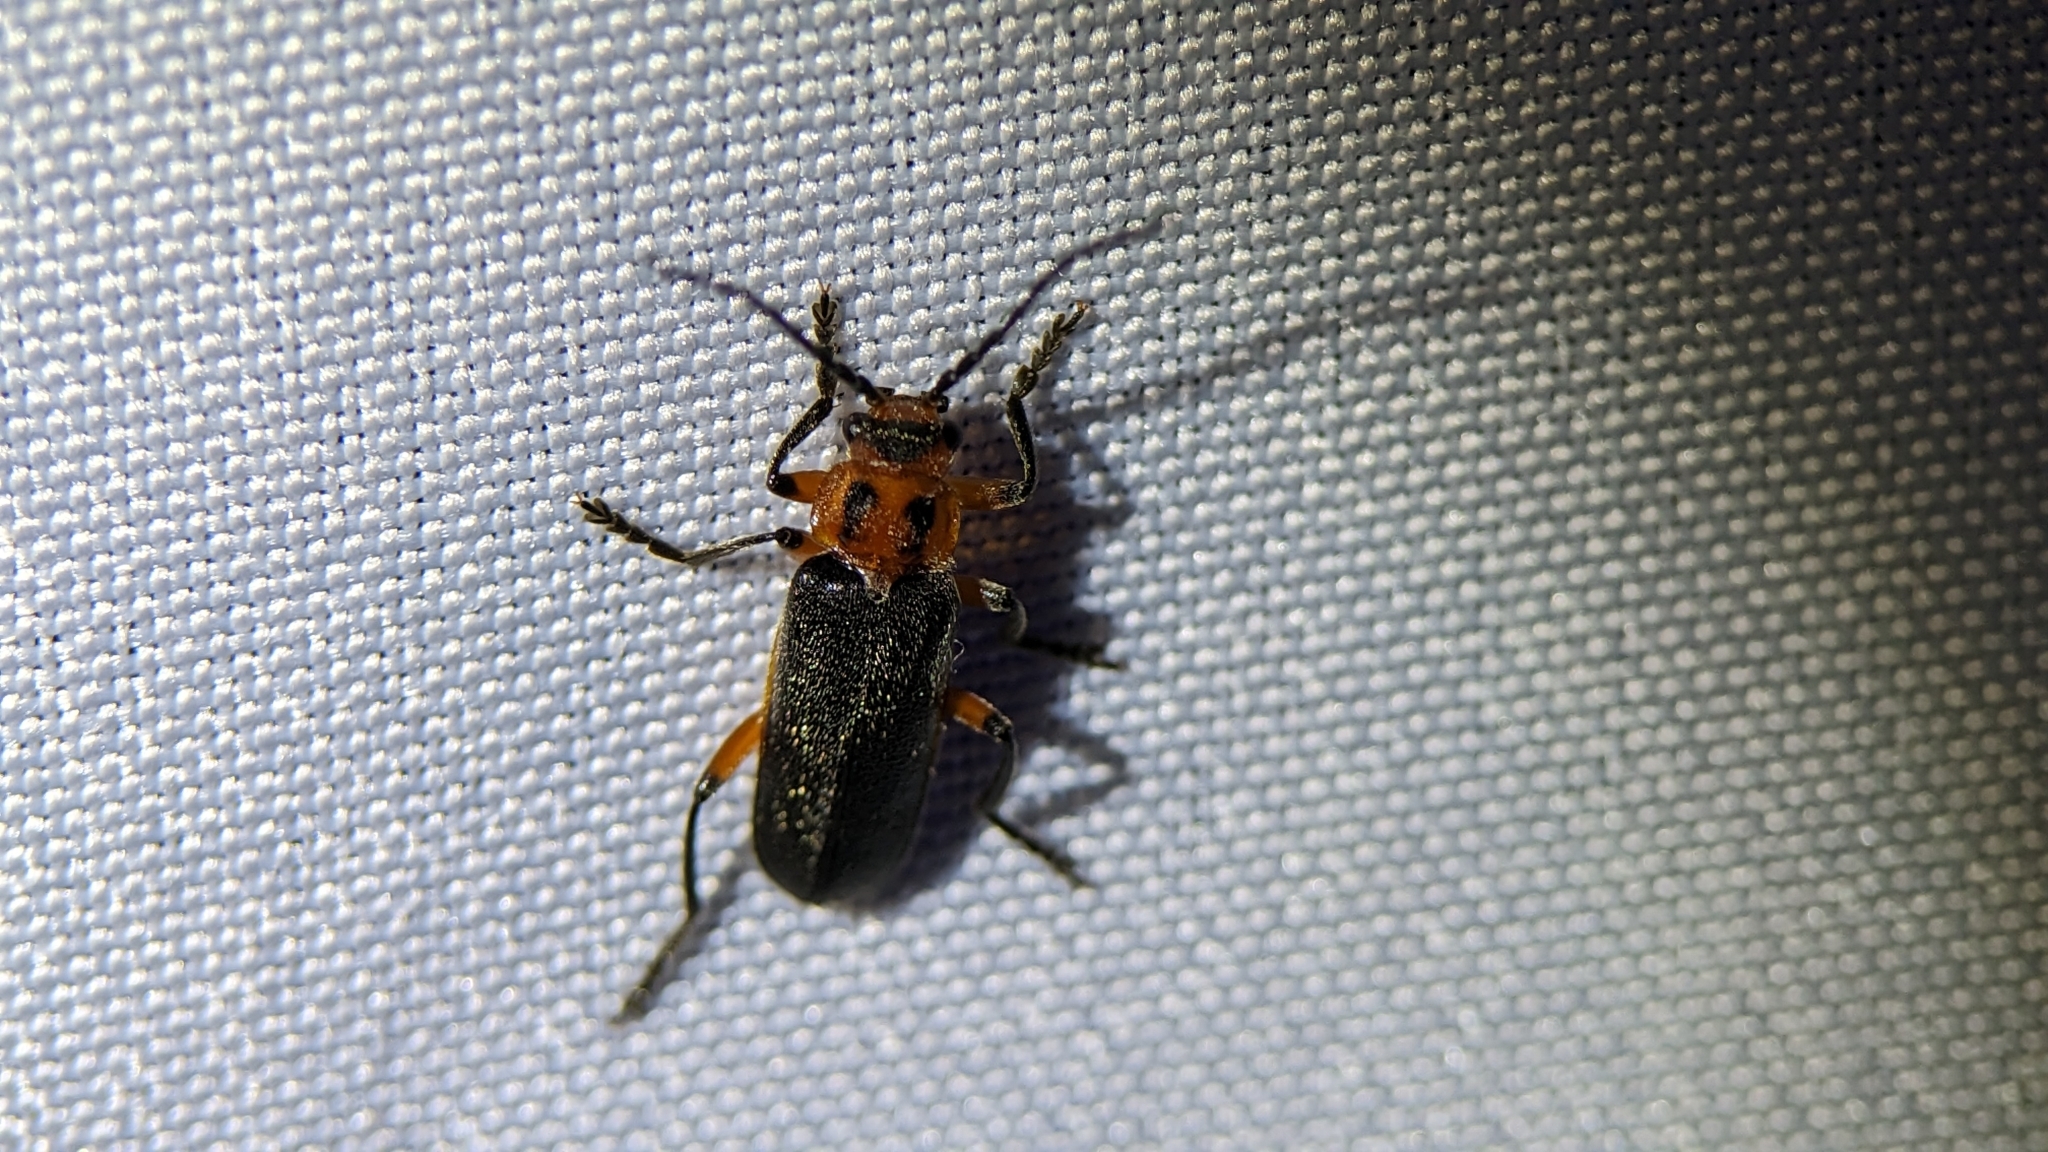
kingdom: Animalia
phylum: Arthropoda
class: Insecta
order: Coleoptera
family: Cantharidae
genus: Atalantycha
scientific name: Atalantycha bilineata
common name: Two-lined leatherwing
